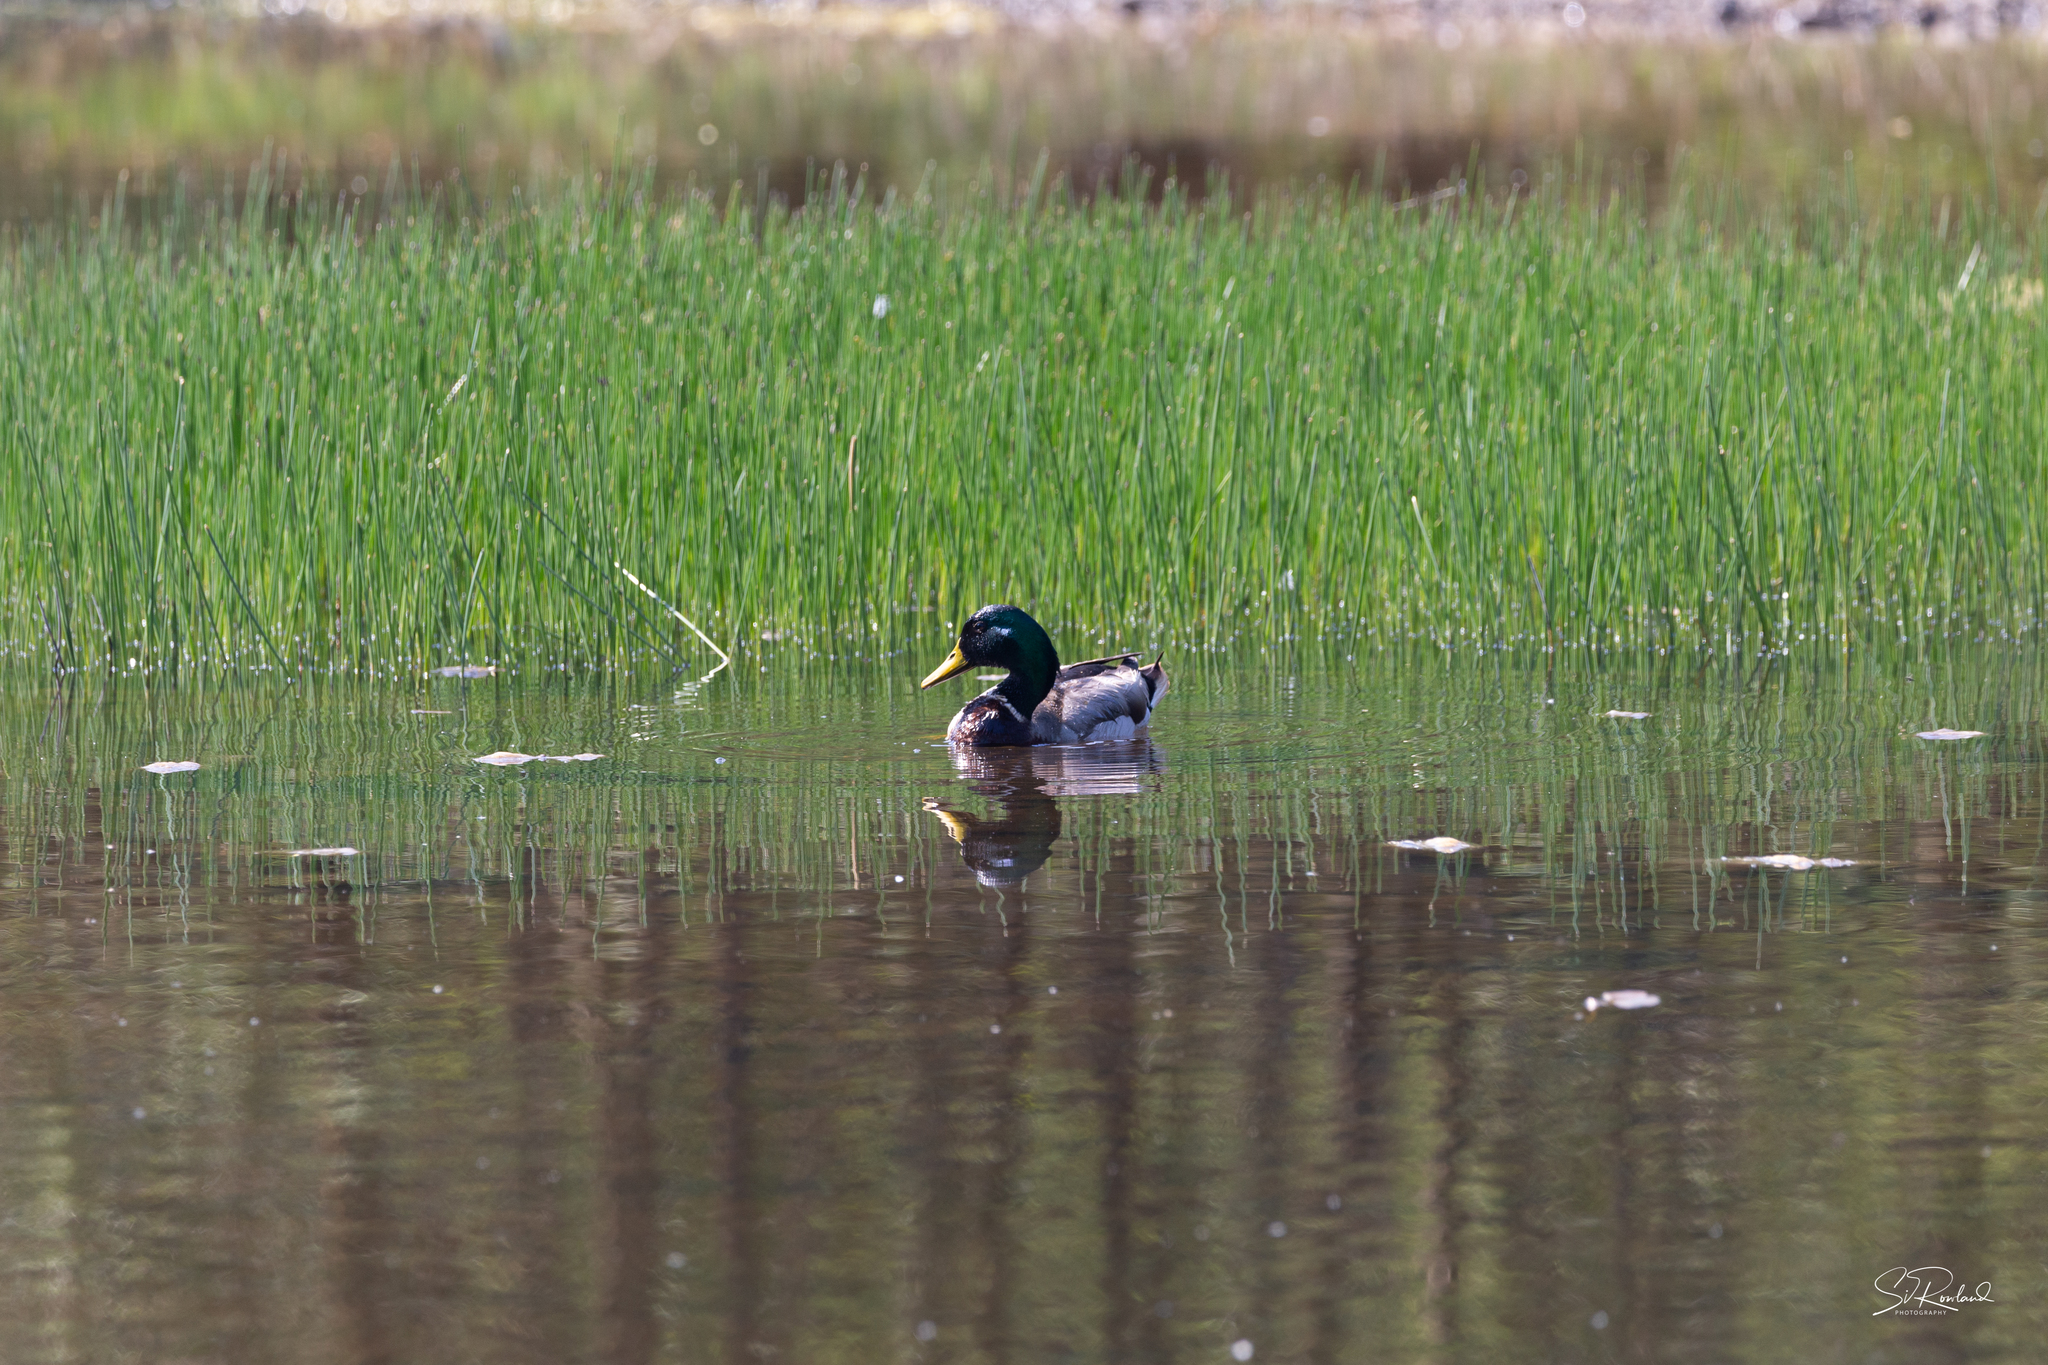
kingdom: Animalia
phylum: Chordata
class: Aves
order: Anseriformes
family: Anatidae
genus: Anas
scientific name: Anas platyrhynchos
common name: Mallard
